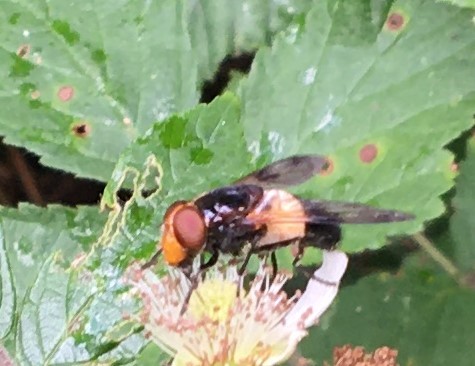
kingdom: Animalia
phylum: Arthropoda
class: Insecta
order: Diptera
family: Syrphidae
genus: Volucella
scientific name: Volucella pellucens
